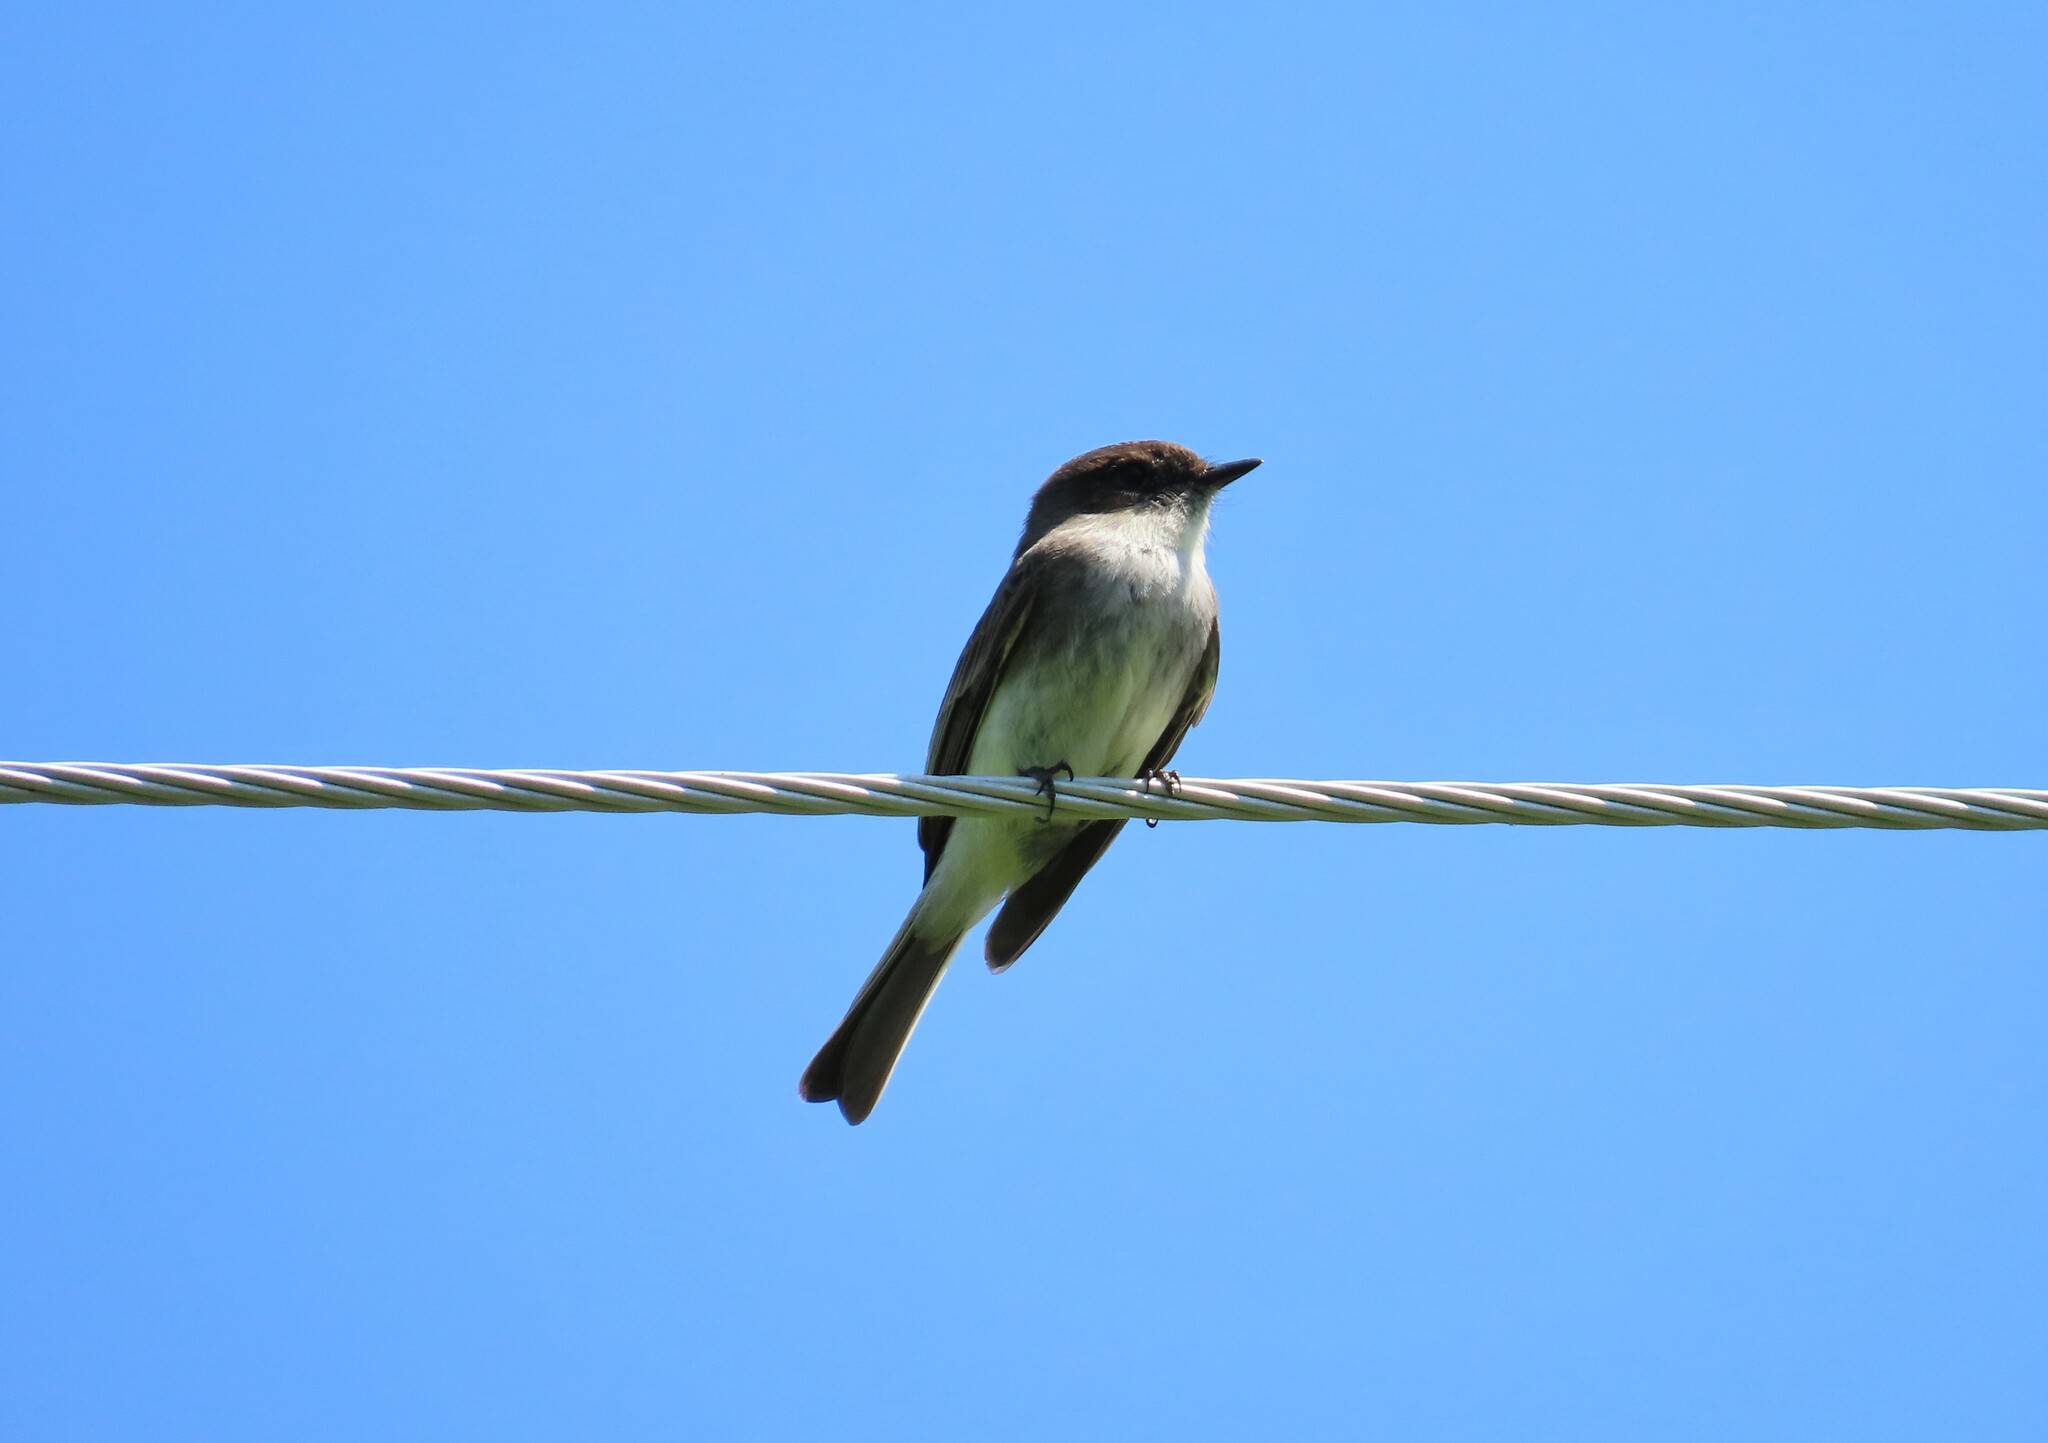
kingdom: Animalia
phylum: Chordata
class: Aves
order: Passeriformes
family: Tyrannidae
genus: Sayornis
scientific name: Sayornis phoebe
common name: Eastern phoebe
